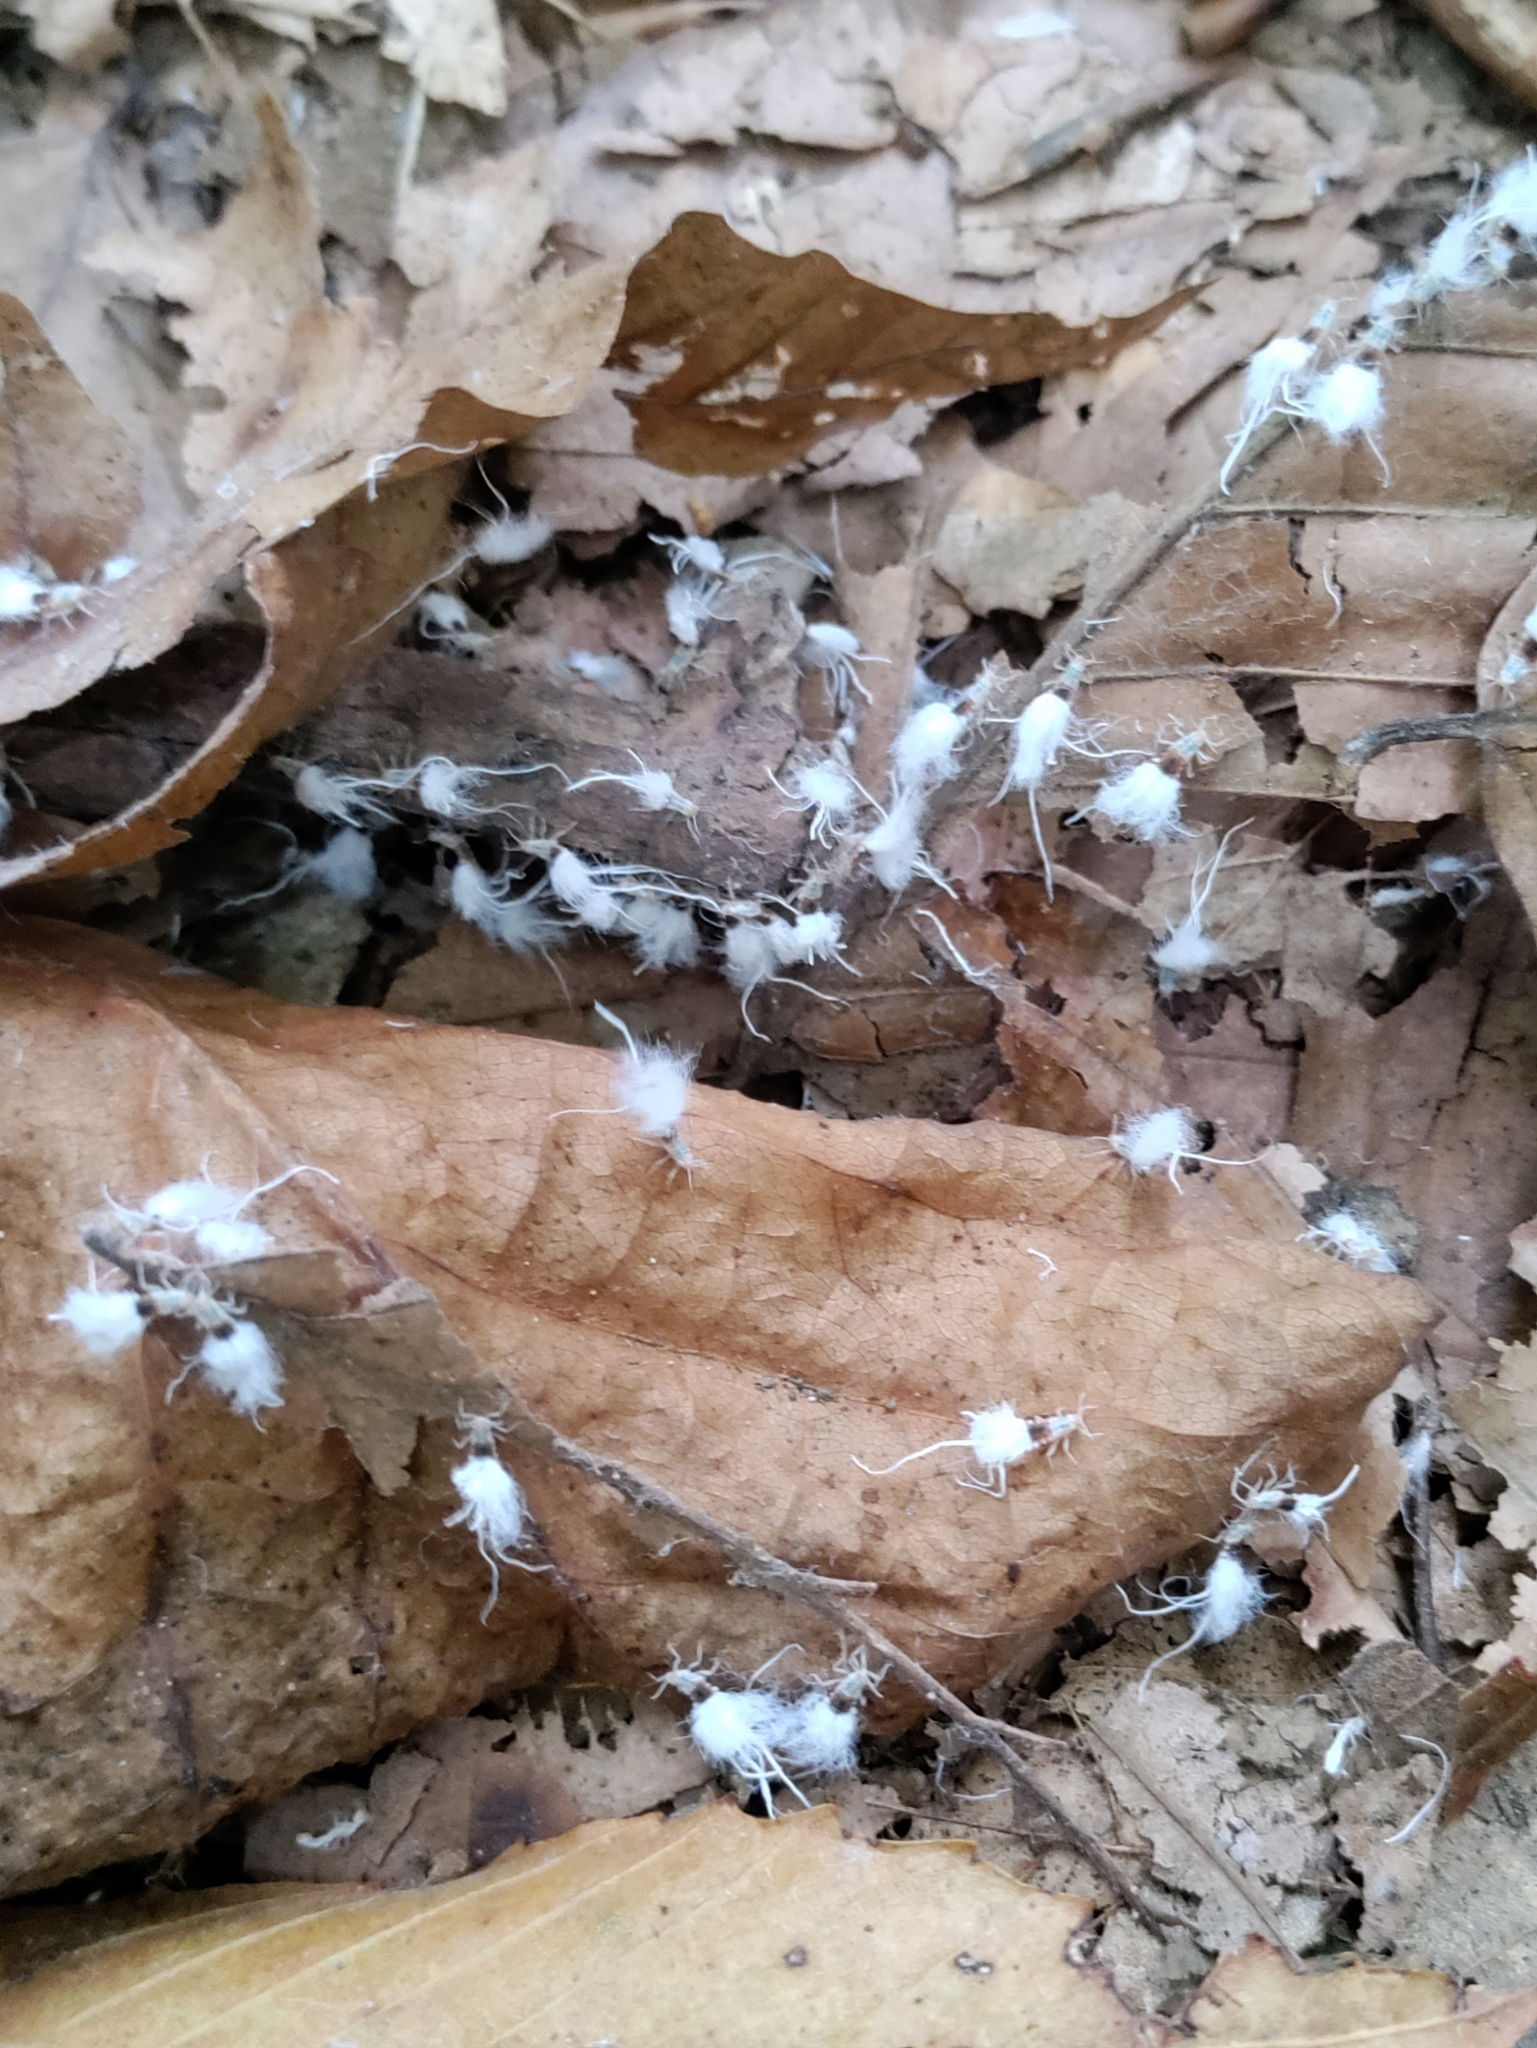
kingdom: Animalia
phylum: Arthropoda
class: Insecta
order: Hemiptera
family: Aphididae
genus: Grylloprociphilus
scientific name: Grylloprociphilus imbricator
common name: Beech blight aphid
